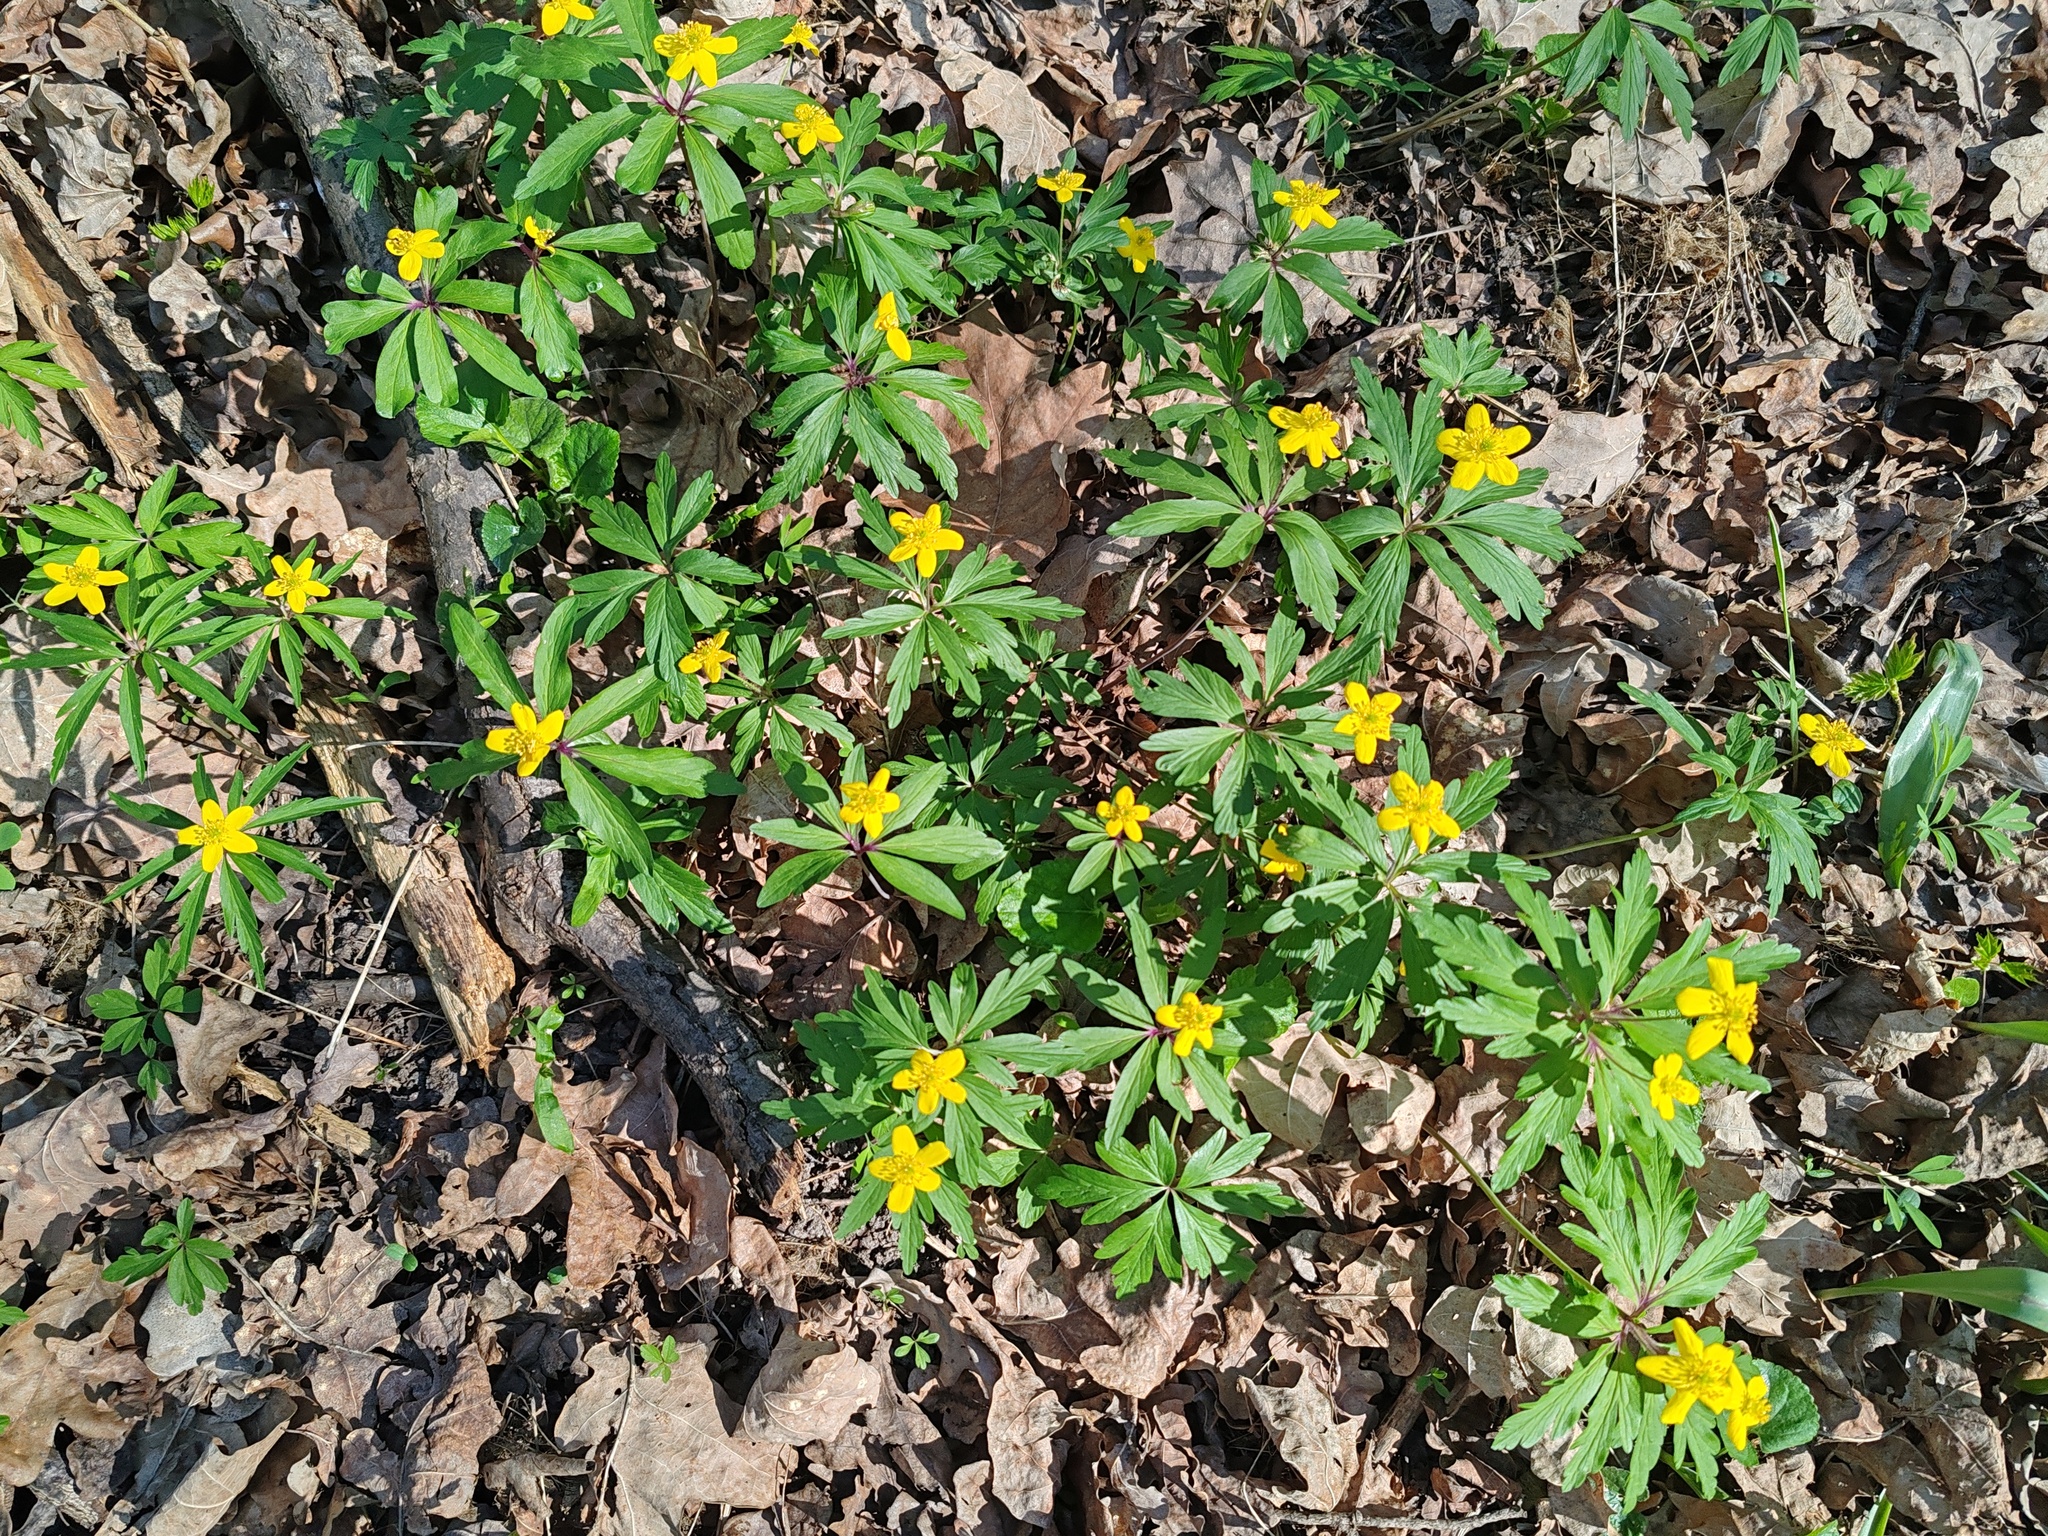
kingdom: Plantae
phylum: Tracheophyta
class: Magnoliopsida
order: Ranunculales
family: Ranunculaceae
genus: Anemone
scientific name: Anemone ranunculoides
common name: Yellow anemone
